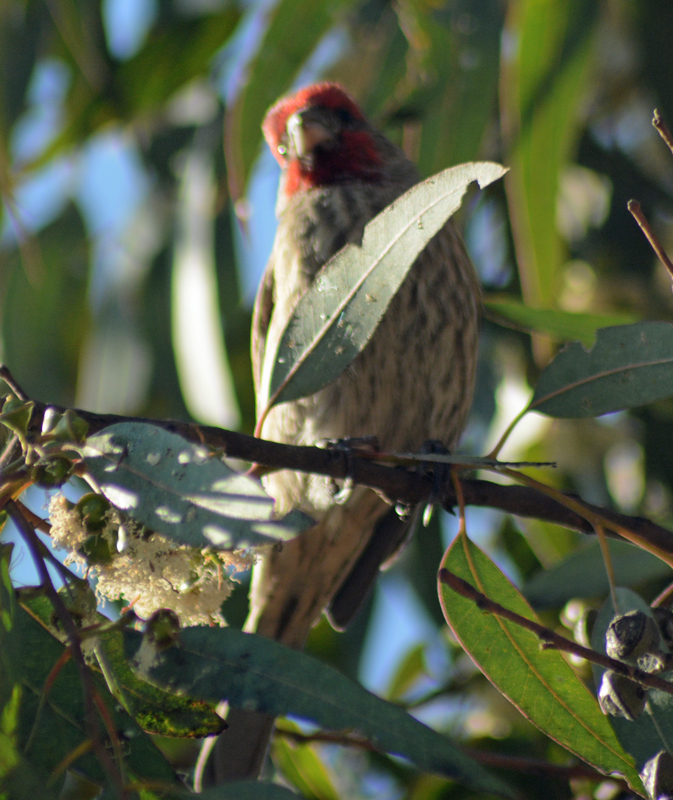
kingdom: Animalia
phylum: Chordata
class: Aves
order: Passeriformes
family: Fringillidae
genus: Haemorhous
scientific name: Haemorhous mexicanus
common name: House finch
